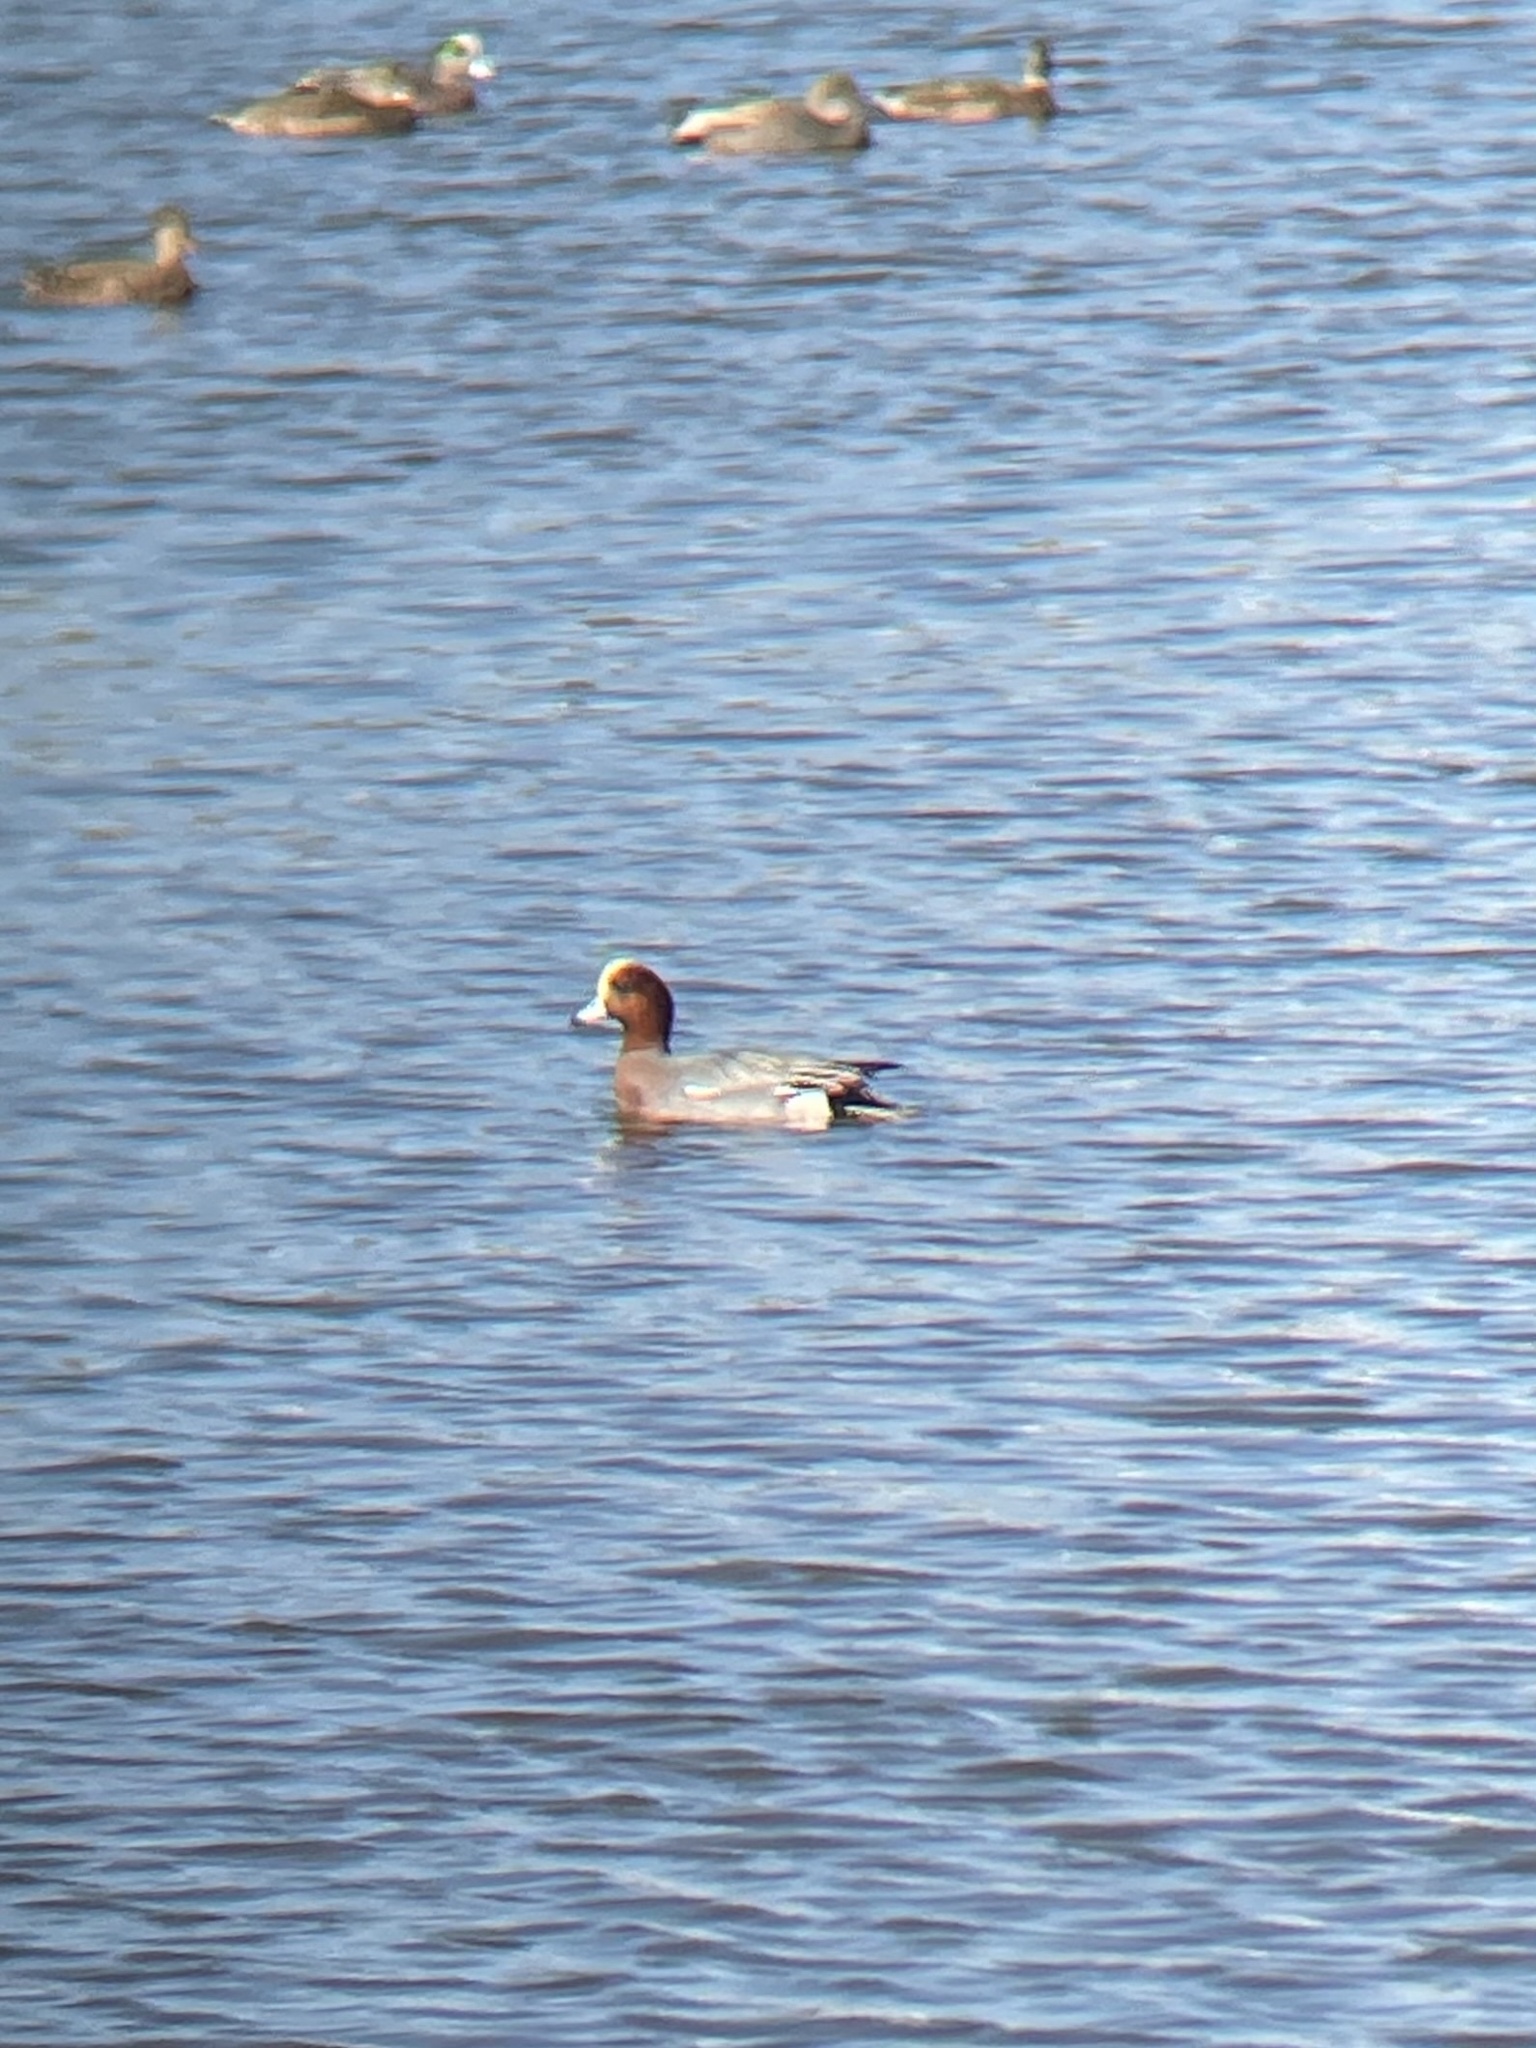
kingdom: Animalia
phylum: Chordata
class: Aves
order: Anseriformes
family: Anatidae
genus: Mareca
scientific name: Mareca penelope
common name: Eurasian wigeon
